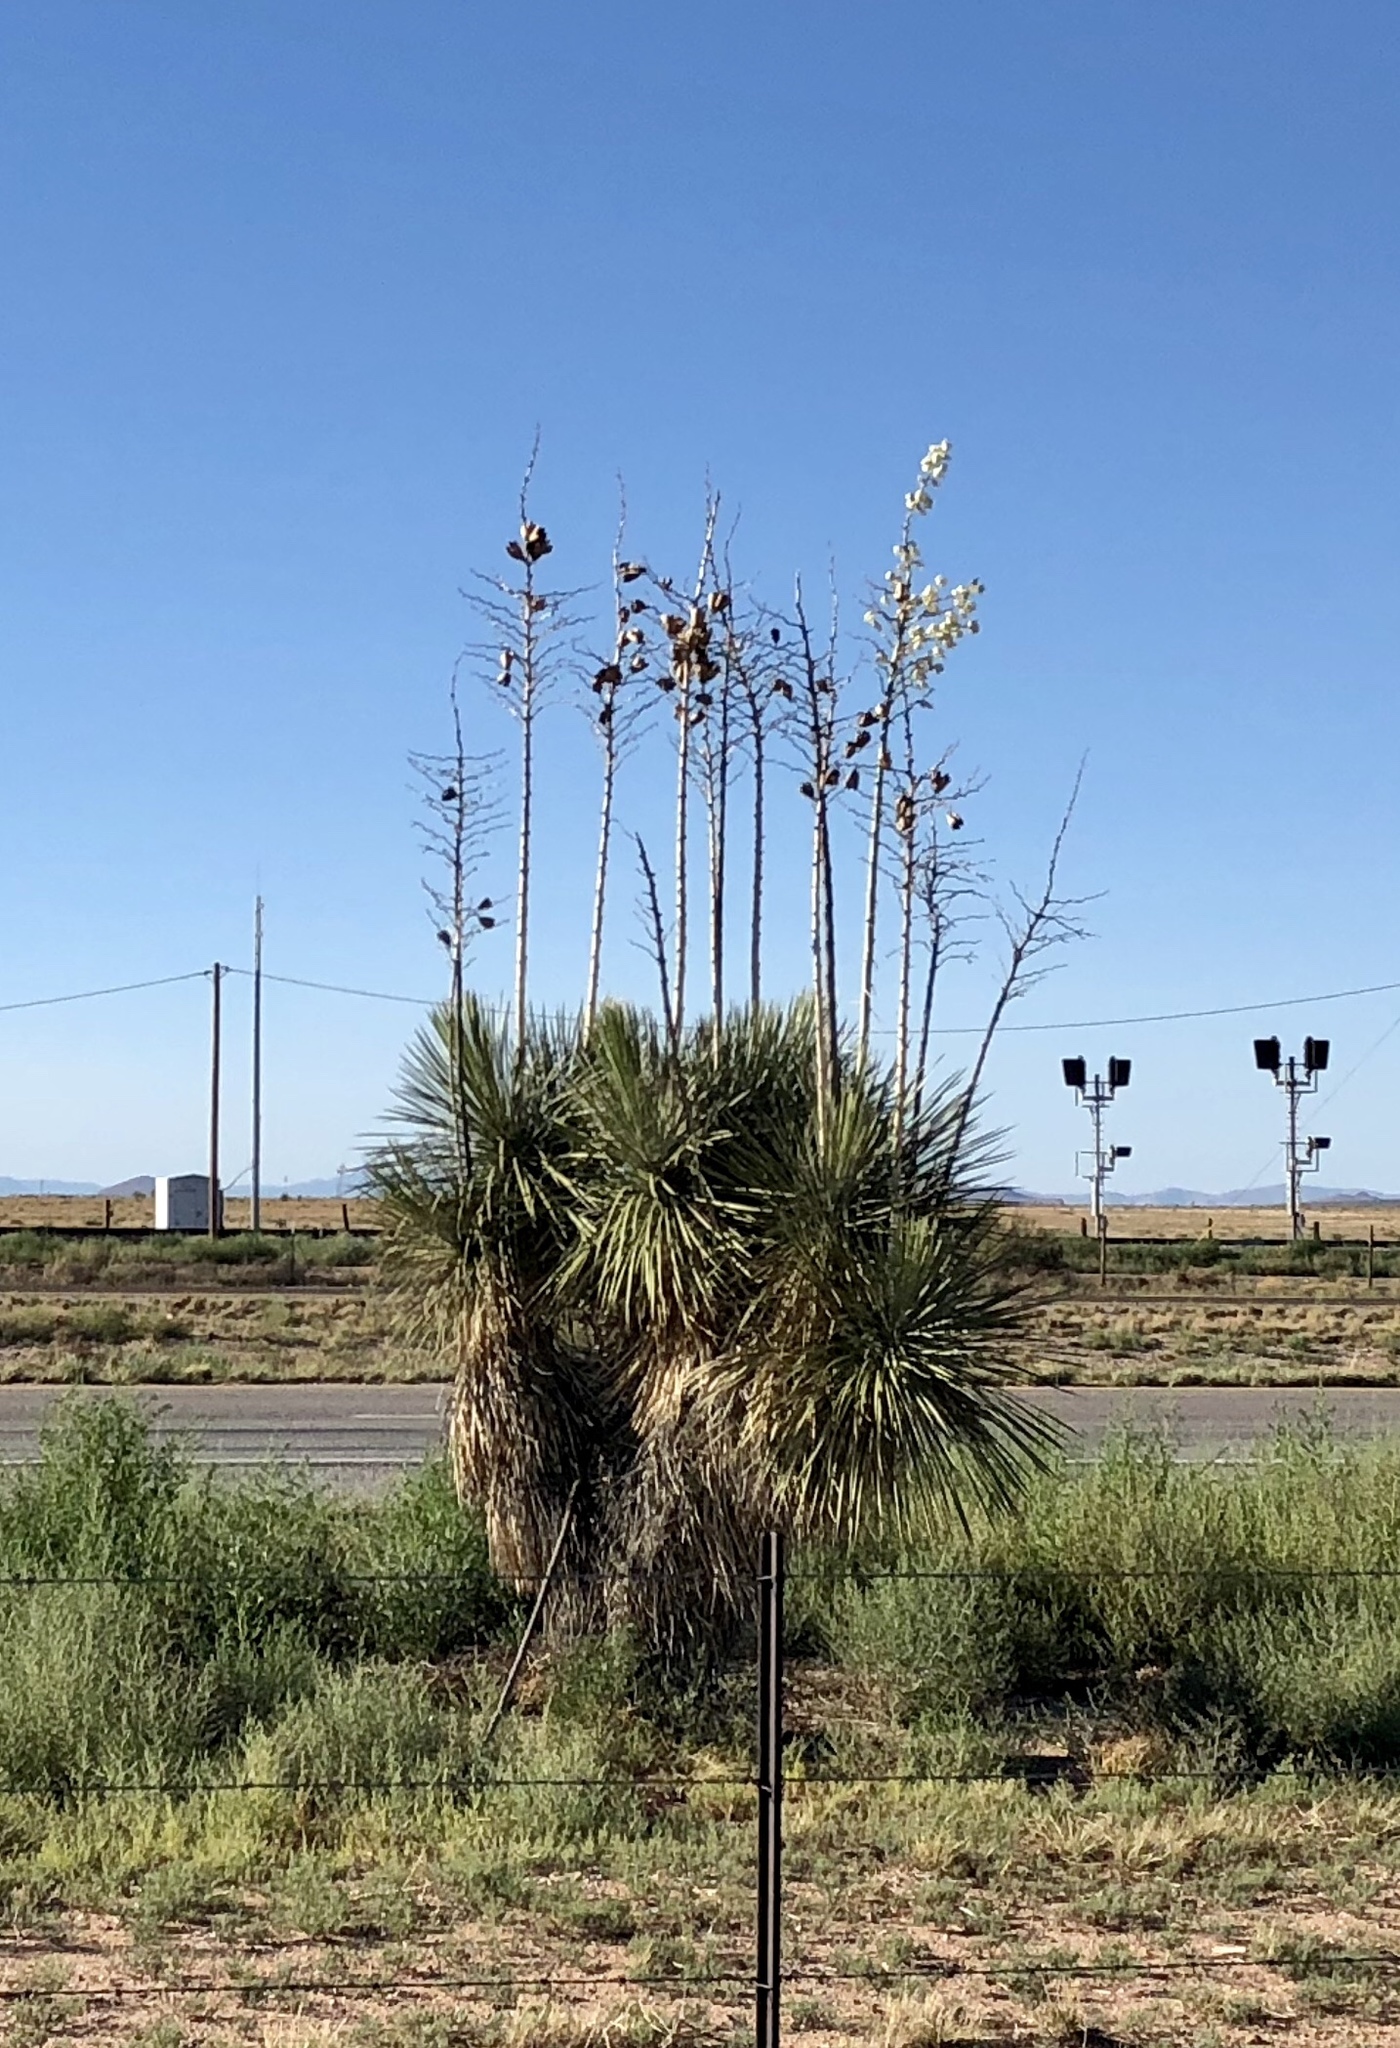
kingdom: Plantae
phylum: Tracheophyta
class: Liliopsida
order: Asparagales
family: Asparagaceae
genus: Yucca
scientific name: Yucca elata
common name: Palmella
